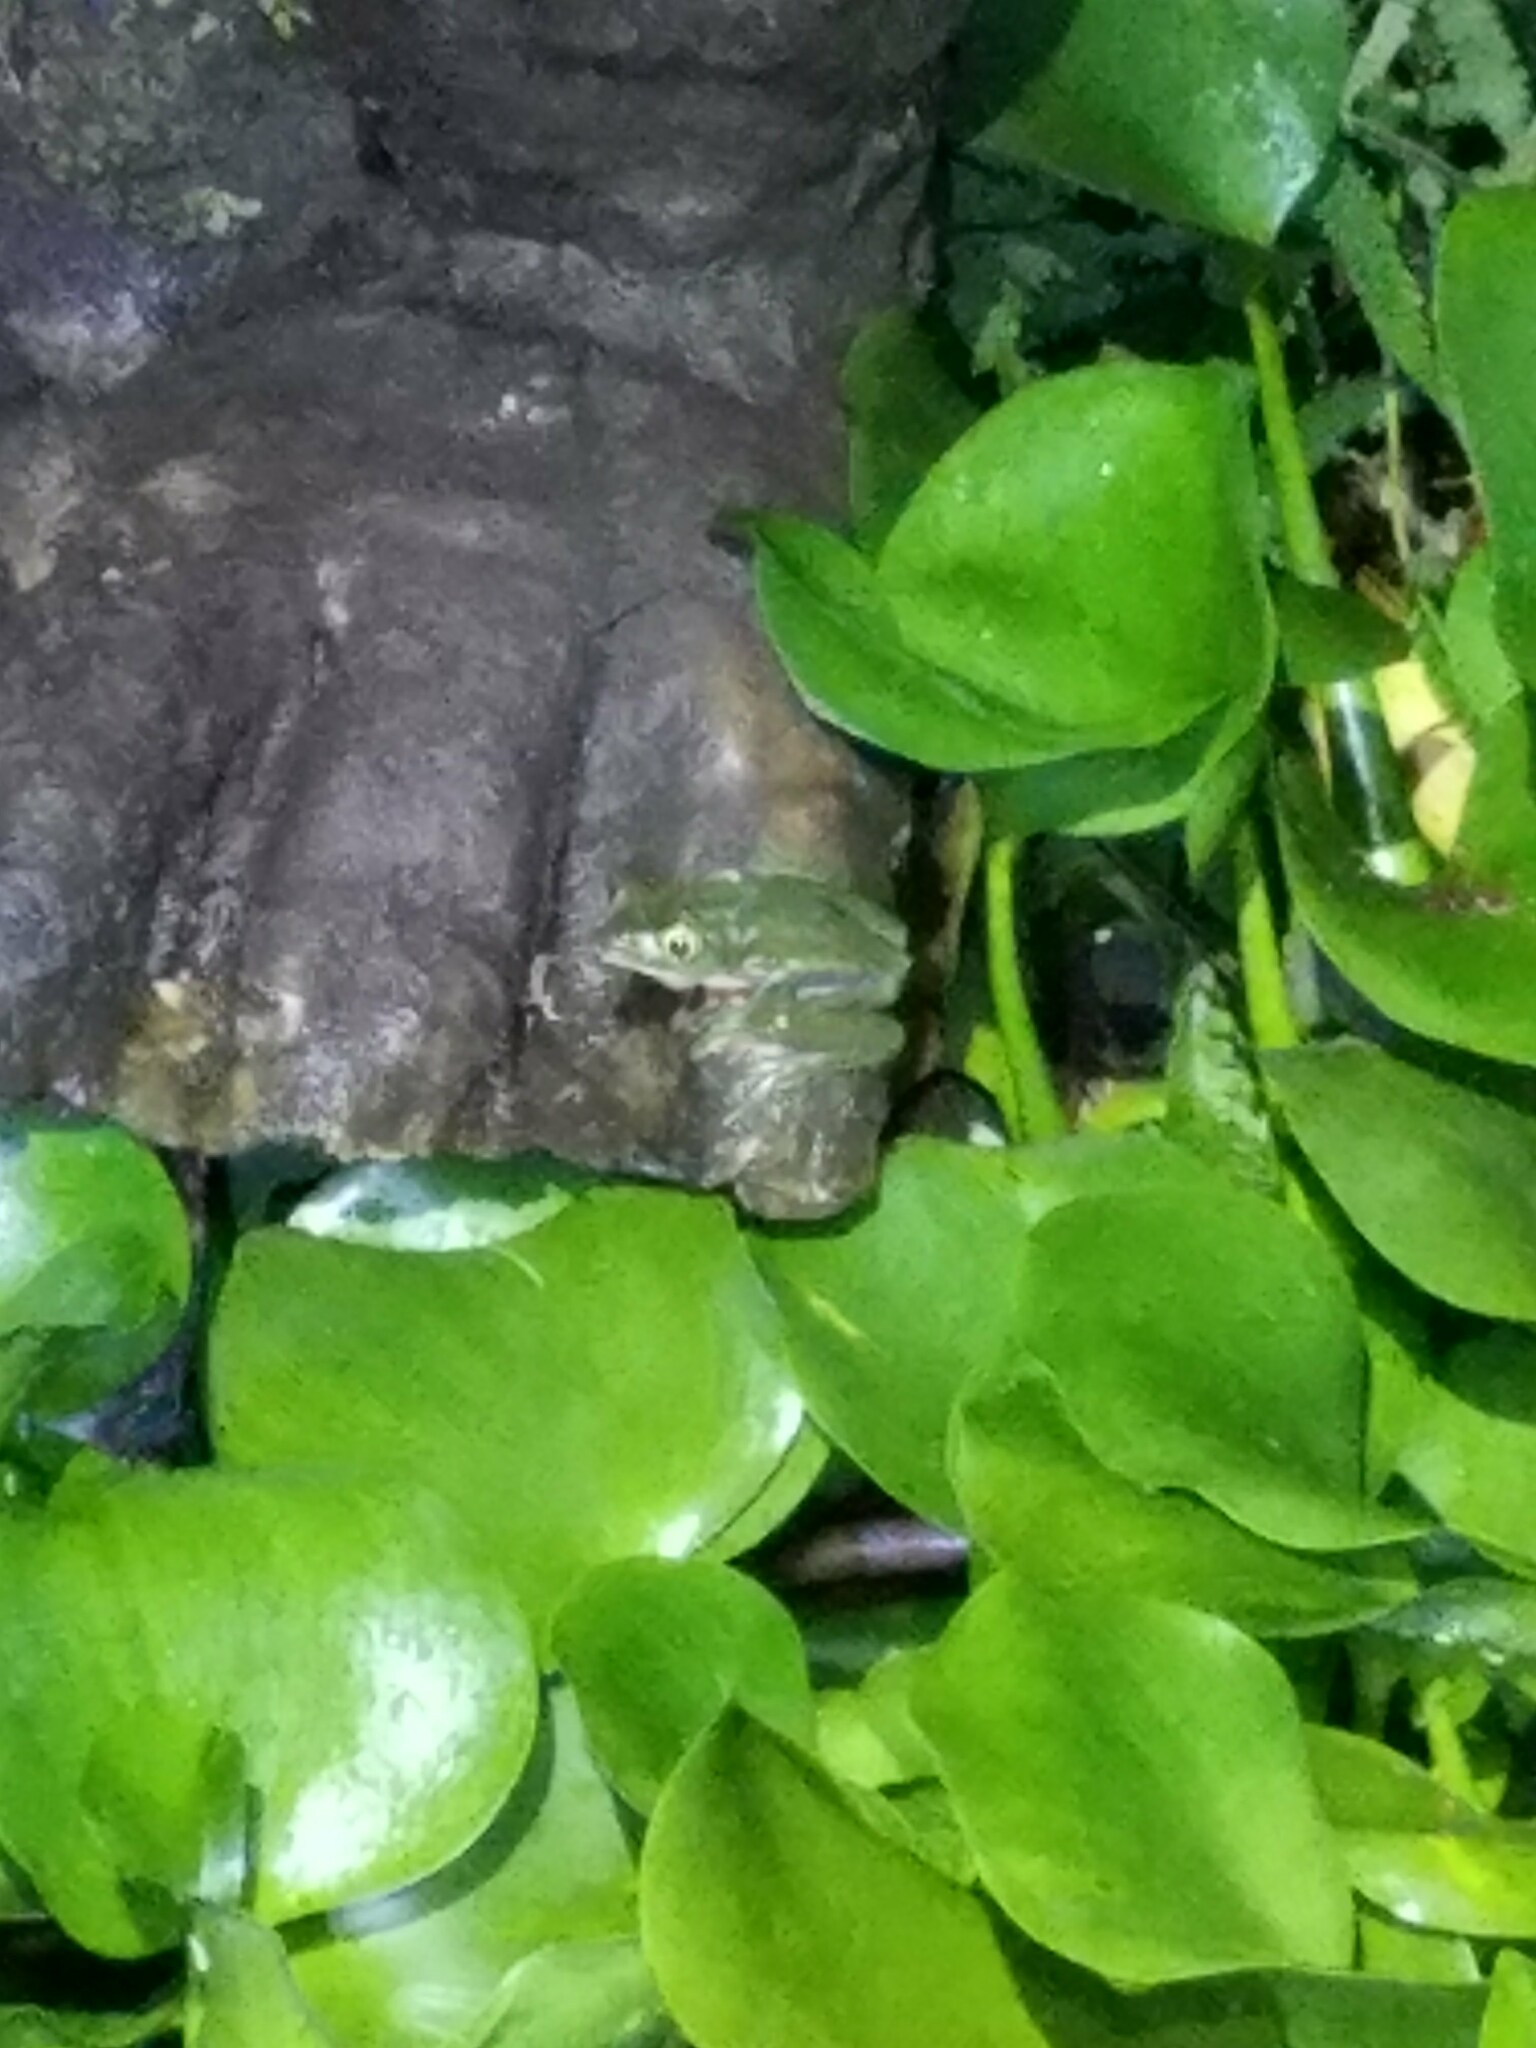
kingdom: Animalia
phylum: Chordata
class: Amphibia
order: Anura
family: Phyllomedusidae
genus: Agalychnis
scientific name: Agalychnis annae
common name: Blue-sided treefrog
